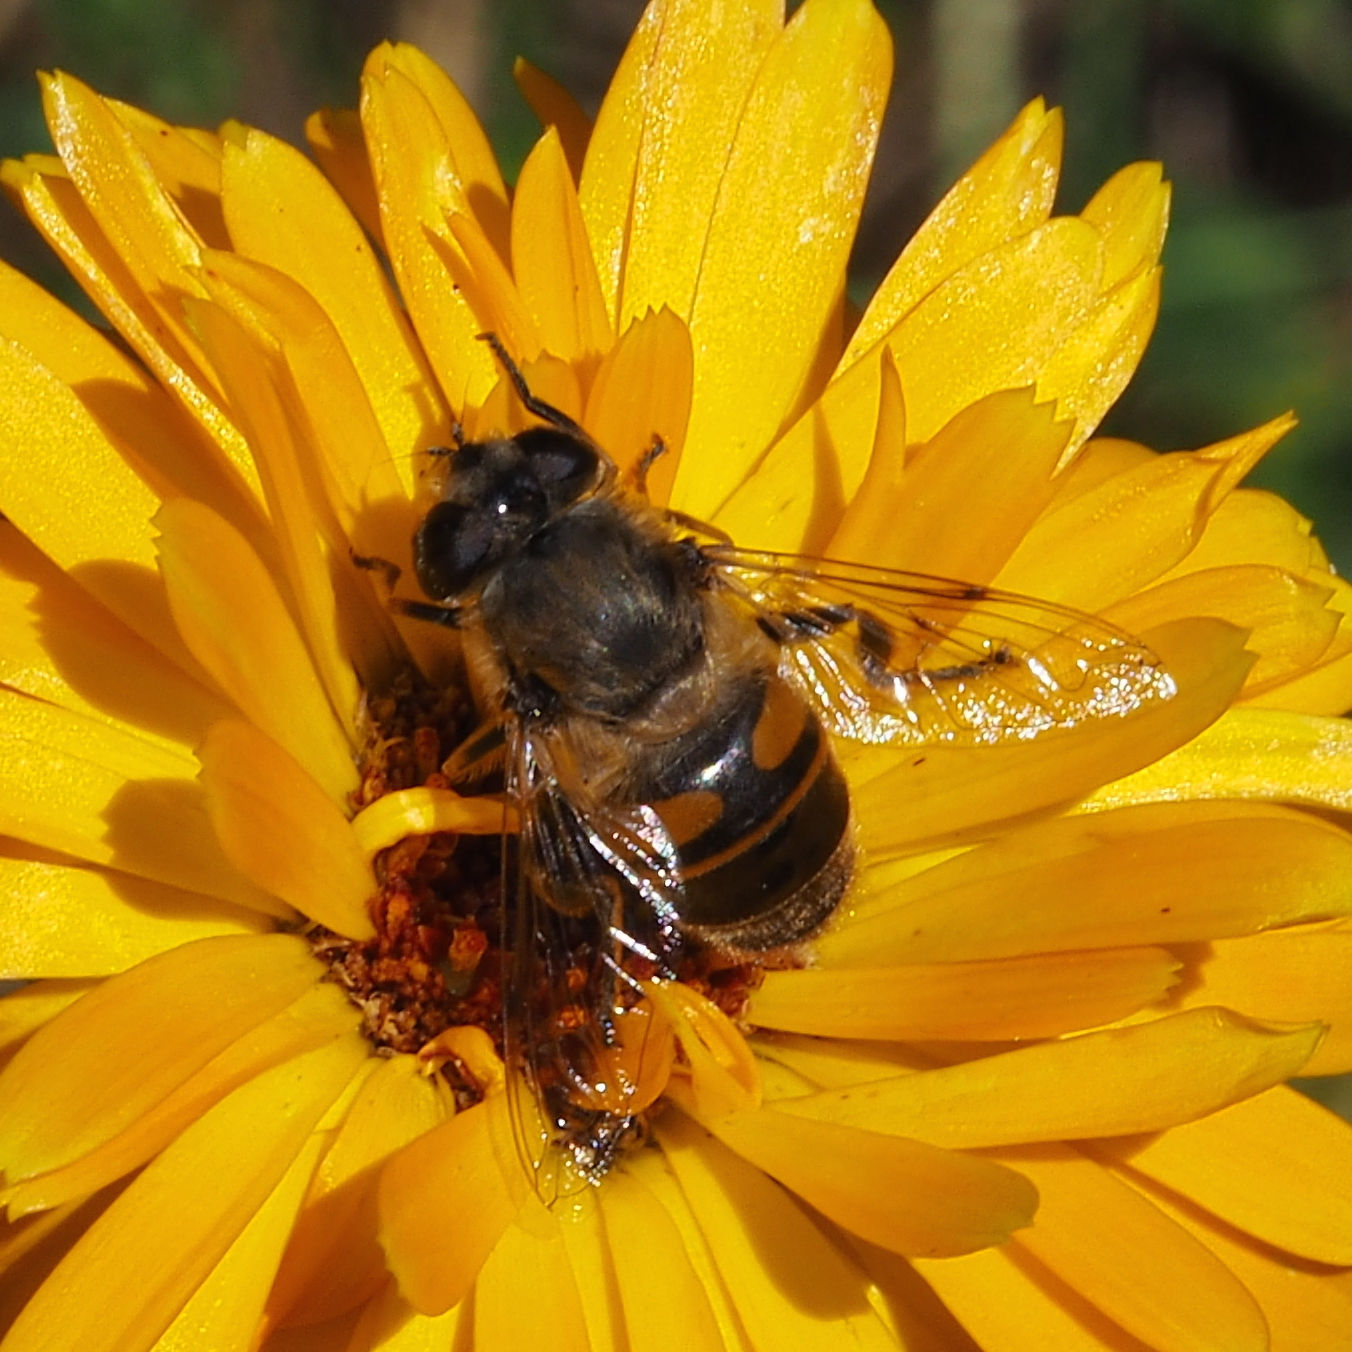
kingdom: Animalia
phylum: Arthropoda
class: Insecta
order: Diptera
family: Syrphidae
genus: Eristalis
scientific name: Eristalis tenax
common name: Drone fly
